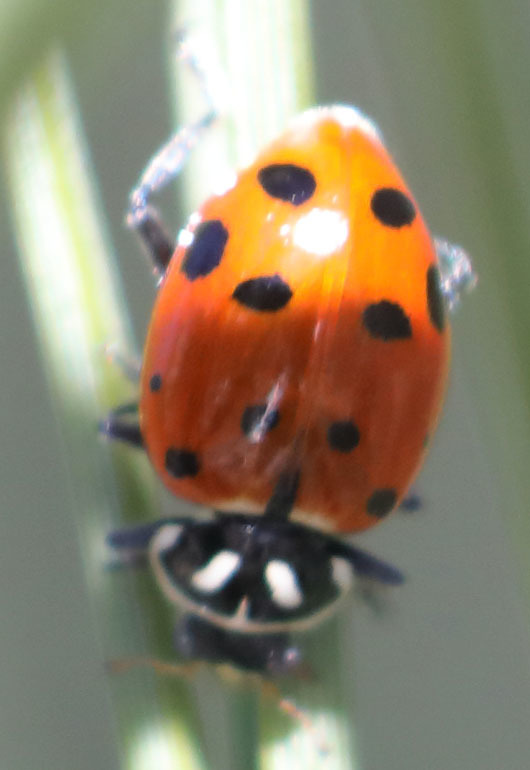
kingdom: Animalia
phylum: Arthropoda
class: Insecta
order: Coleoptera
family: Coccinellidae
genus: Hippodamia
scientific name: Hippodamia convergens
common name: Convergent lady beetle
